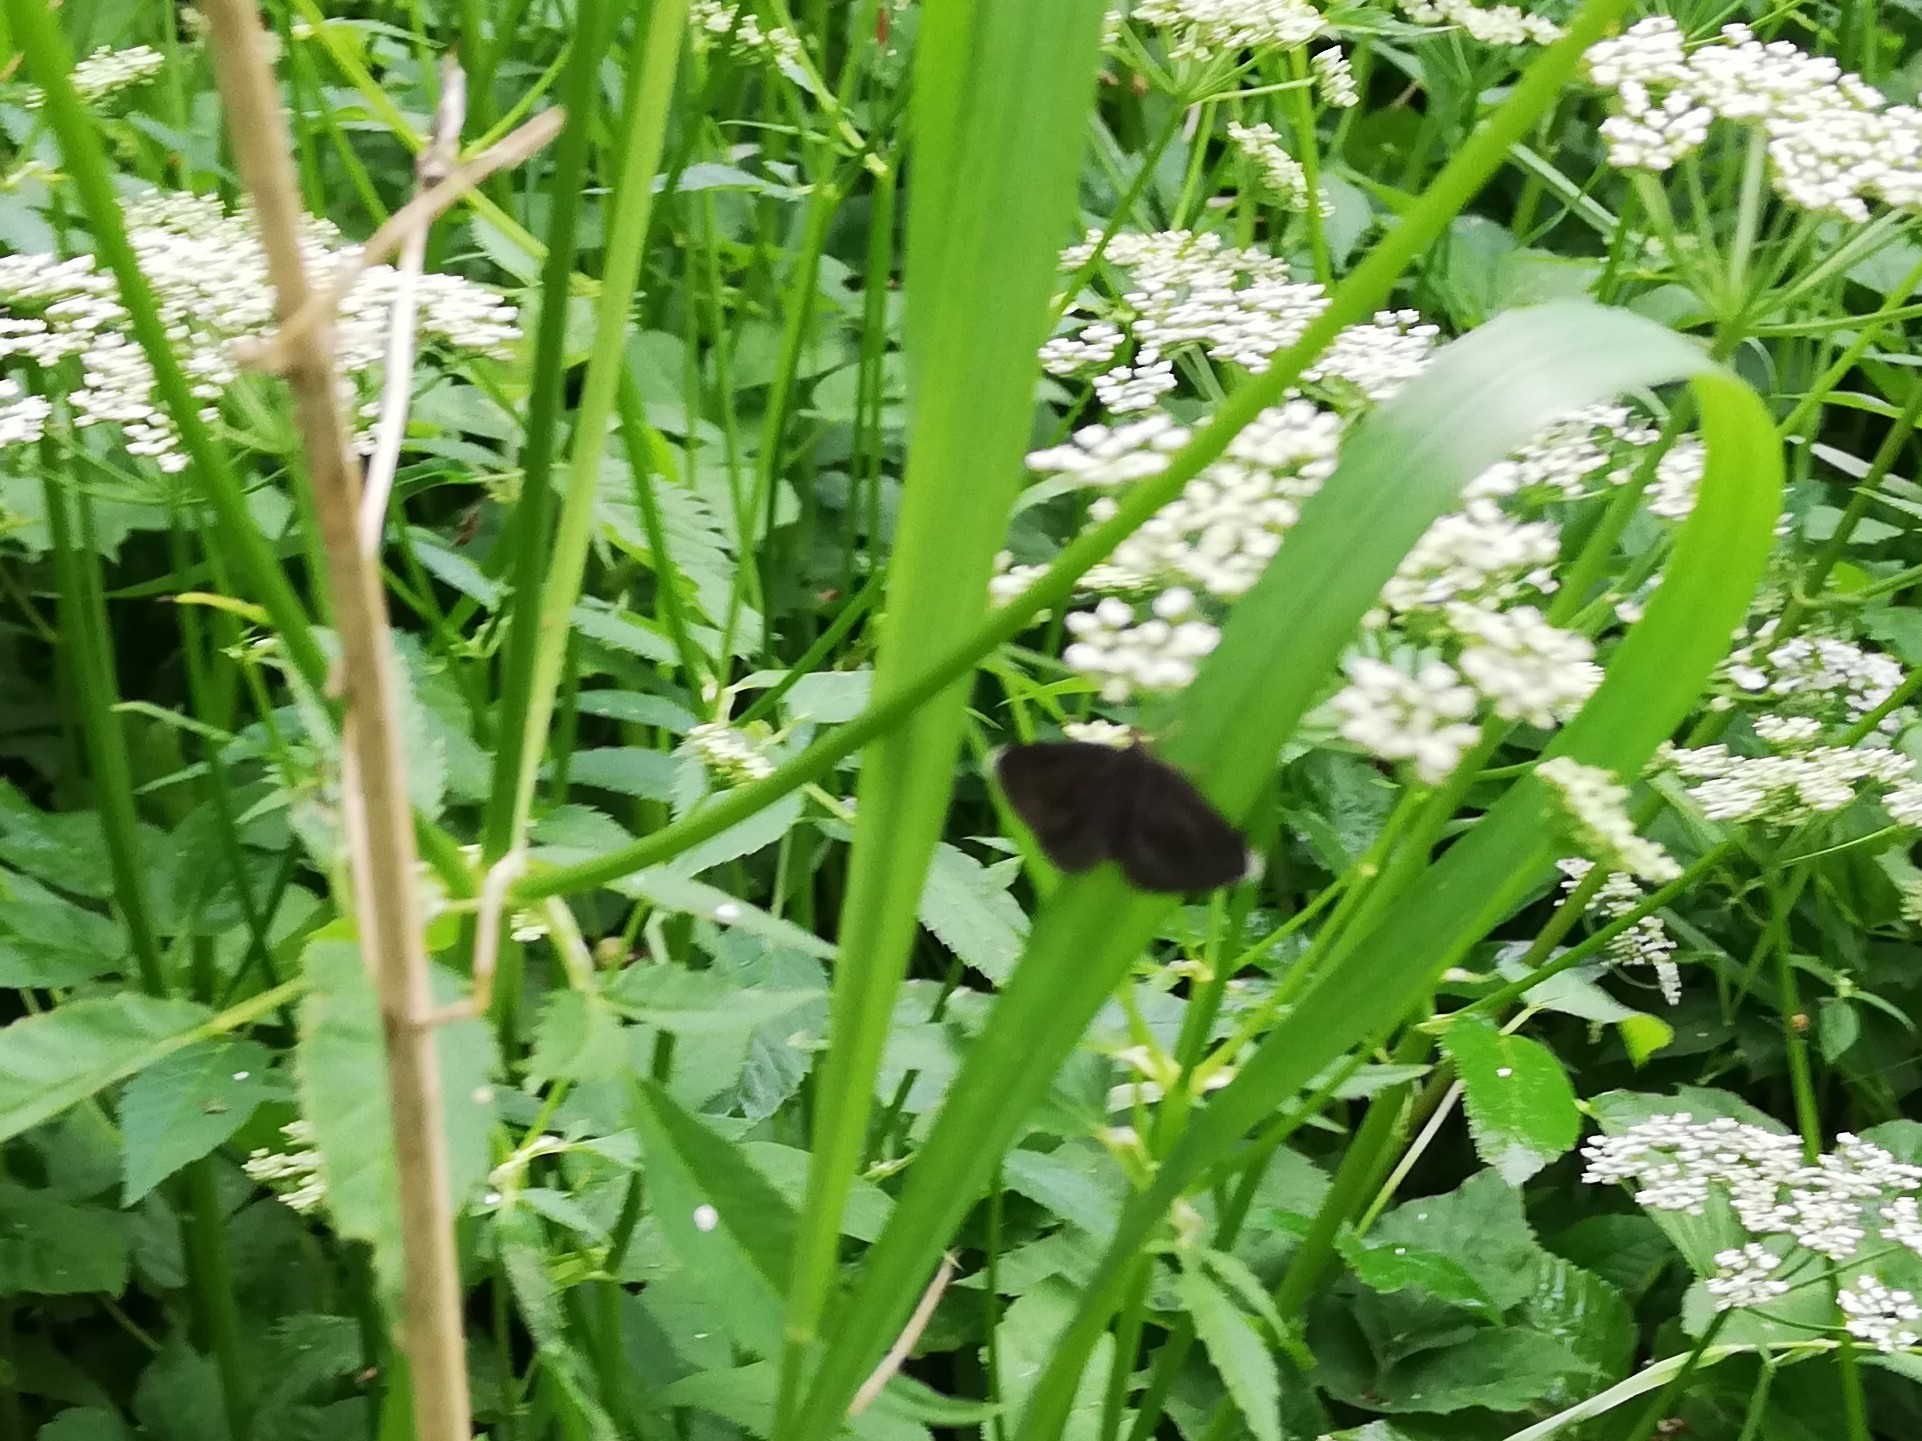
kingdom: Animalia
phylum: Arthropoda
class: Insecta
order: Lepidoptera
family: Geometridae
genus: Odezia
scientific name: Odezia atrata
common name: Chimney sweeper
